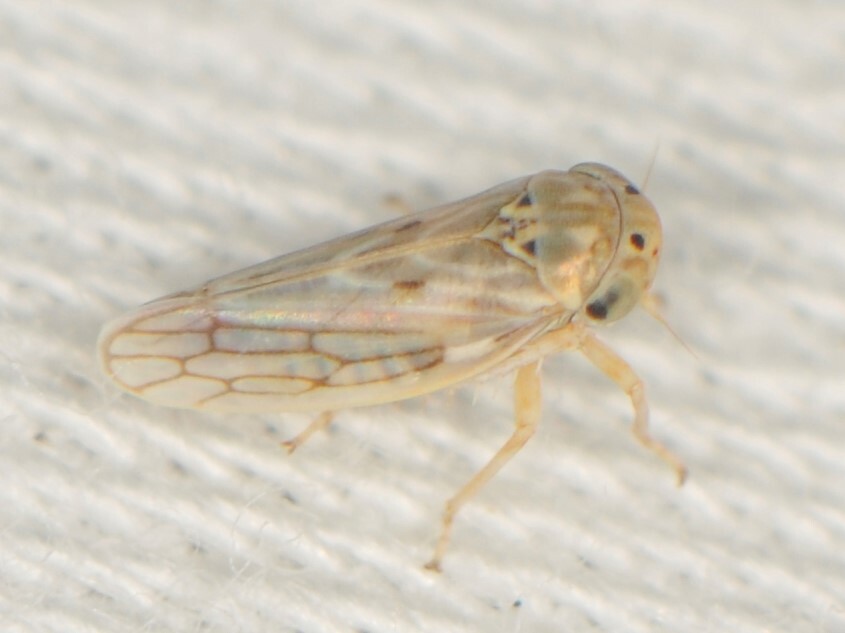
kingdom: Animalia
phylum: Arthropoda
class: Insecta
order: Hemiptera
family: Cicadellidae
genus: Ceratagallia
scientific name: Ceratagallia
